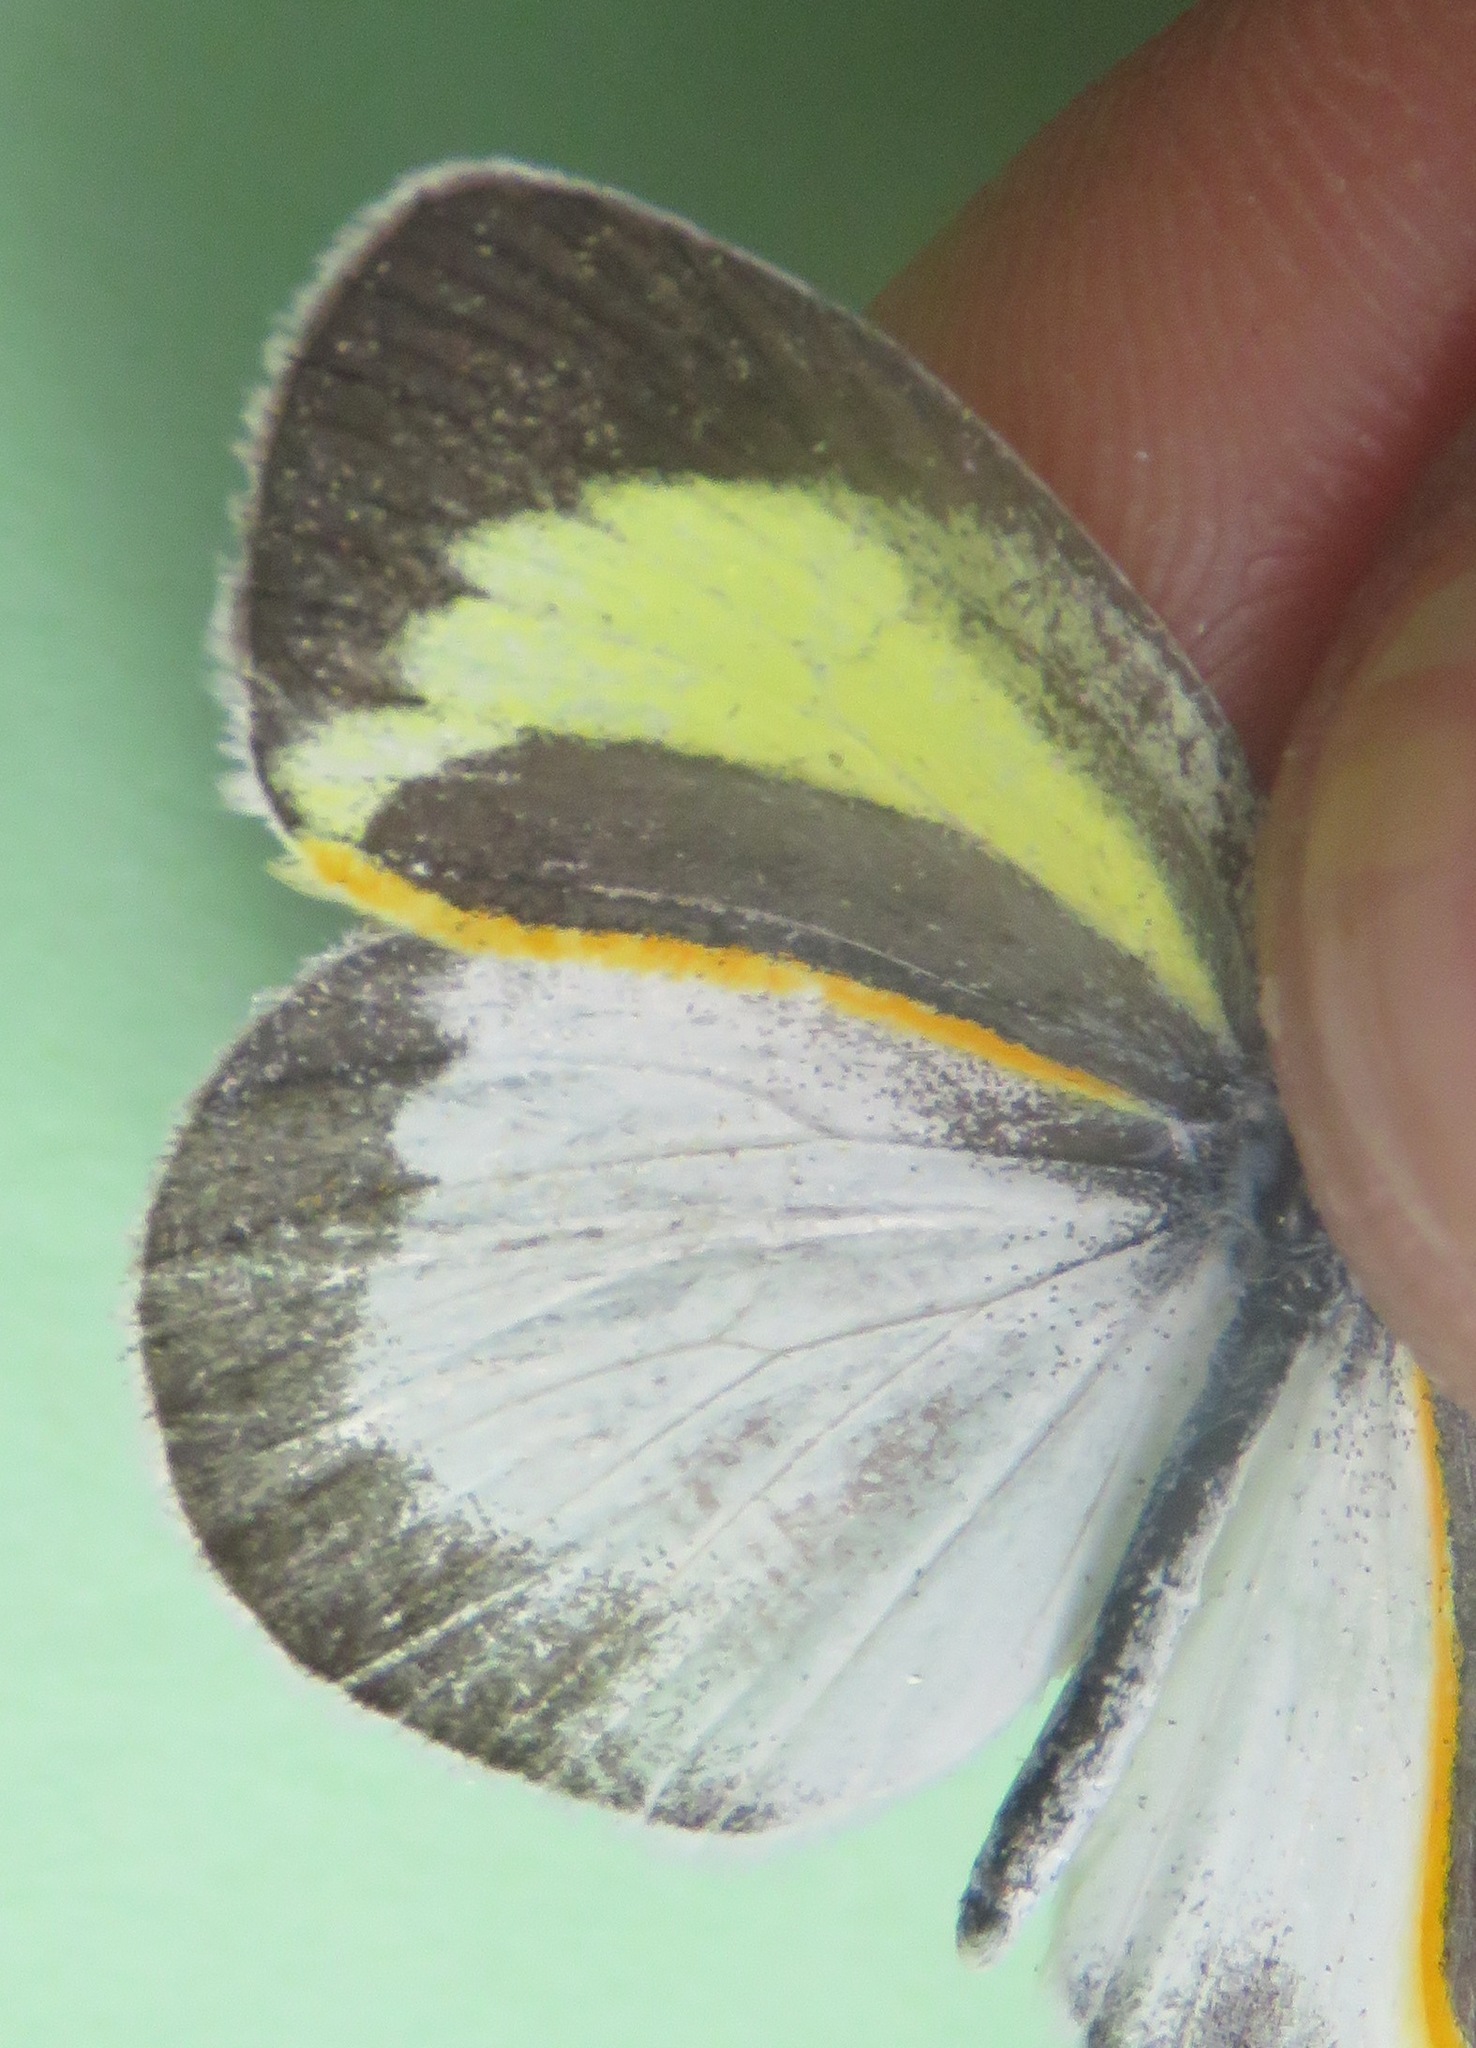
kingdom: Animalia
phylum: Arthropoda
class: Insecta
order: Lepidoptera
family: Pieridae
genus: Eurema
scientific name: Eurema daira
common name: Barred sulphur
